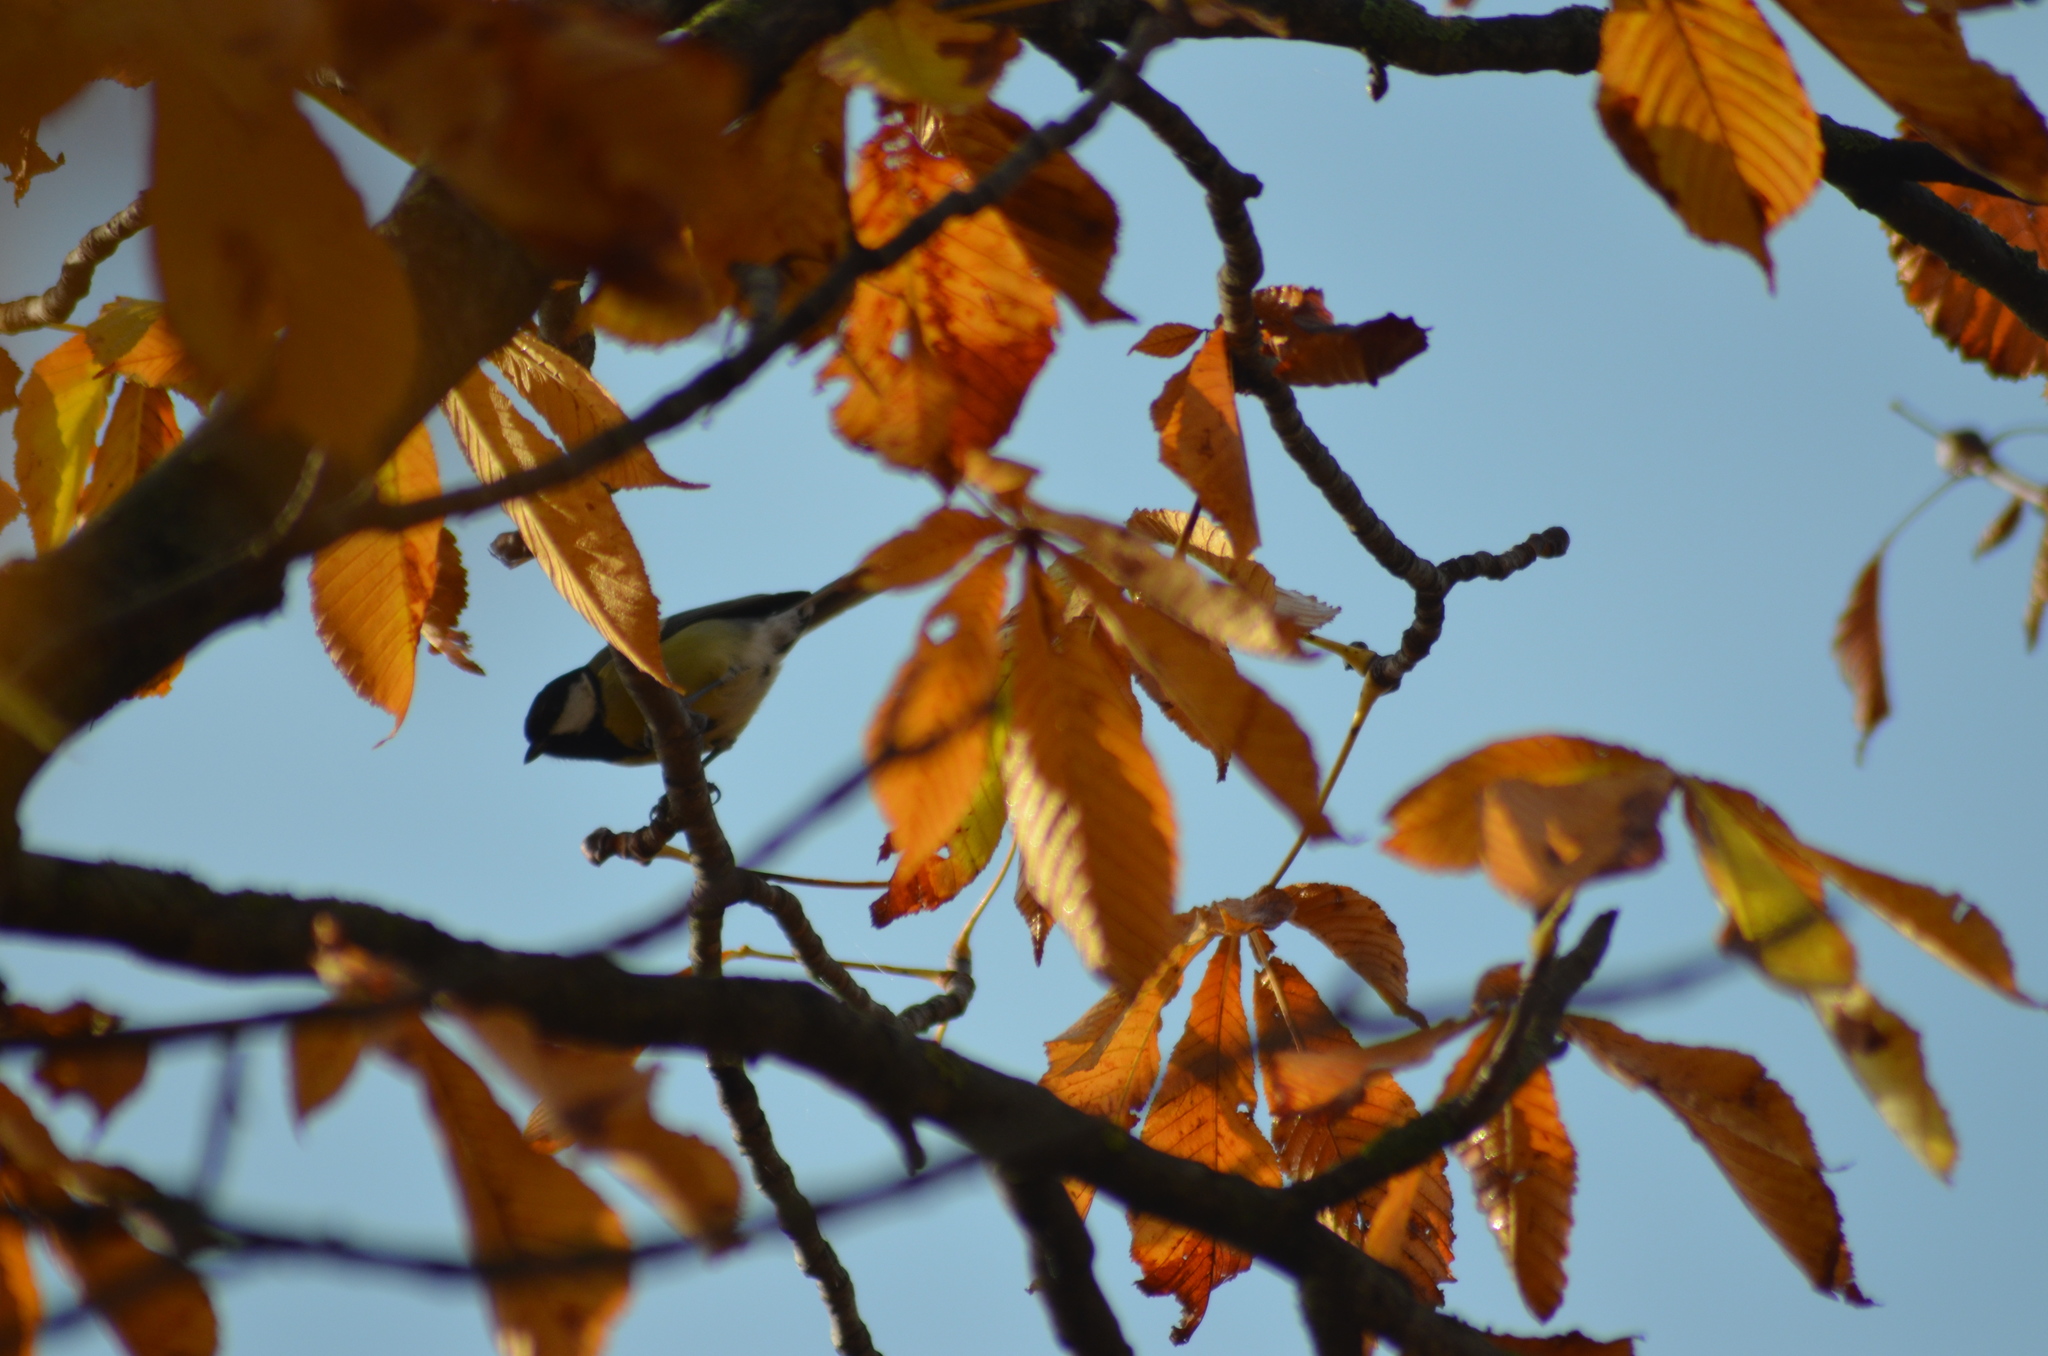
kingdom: Animalia
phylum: Chordata
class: Aves
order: Passeriformes
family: Paridae
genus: Parus
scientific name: Parus major
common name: Great tit
